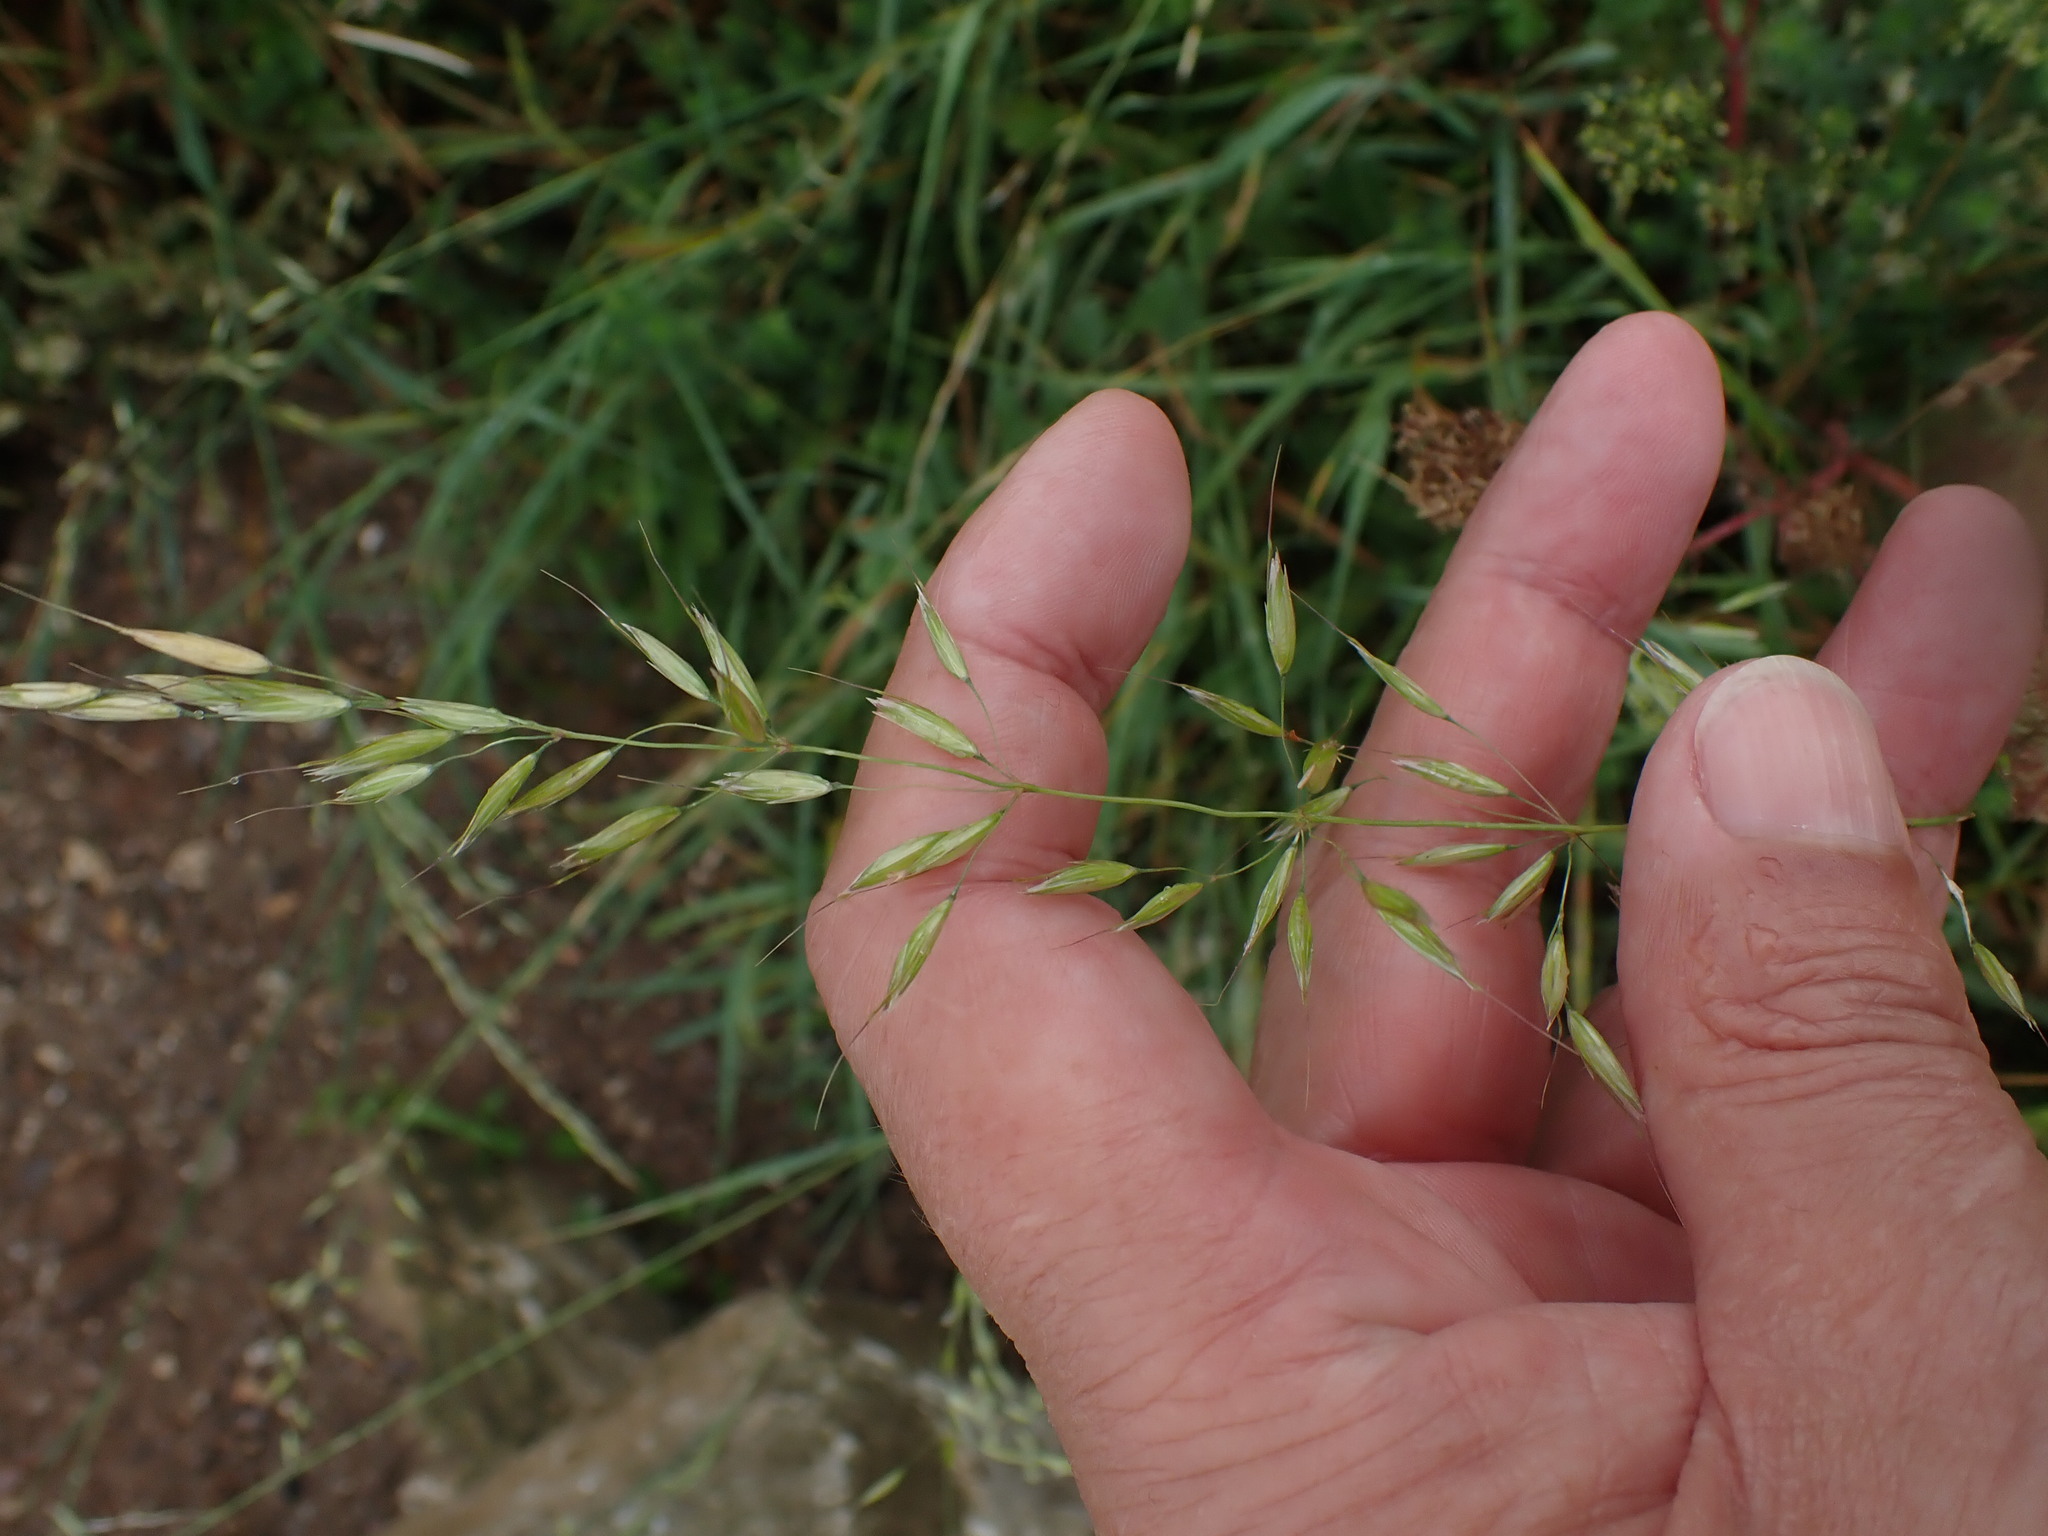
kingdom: Plantae
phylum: Tracheophyta
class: Liliopsida
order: Poales
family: Poaceae
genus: Arrhenatherum
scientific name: Arrhenatherum elatius
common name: Tall oatgrass
